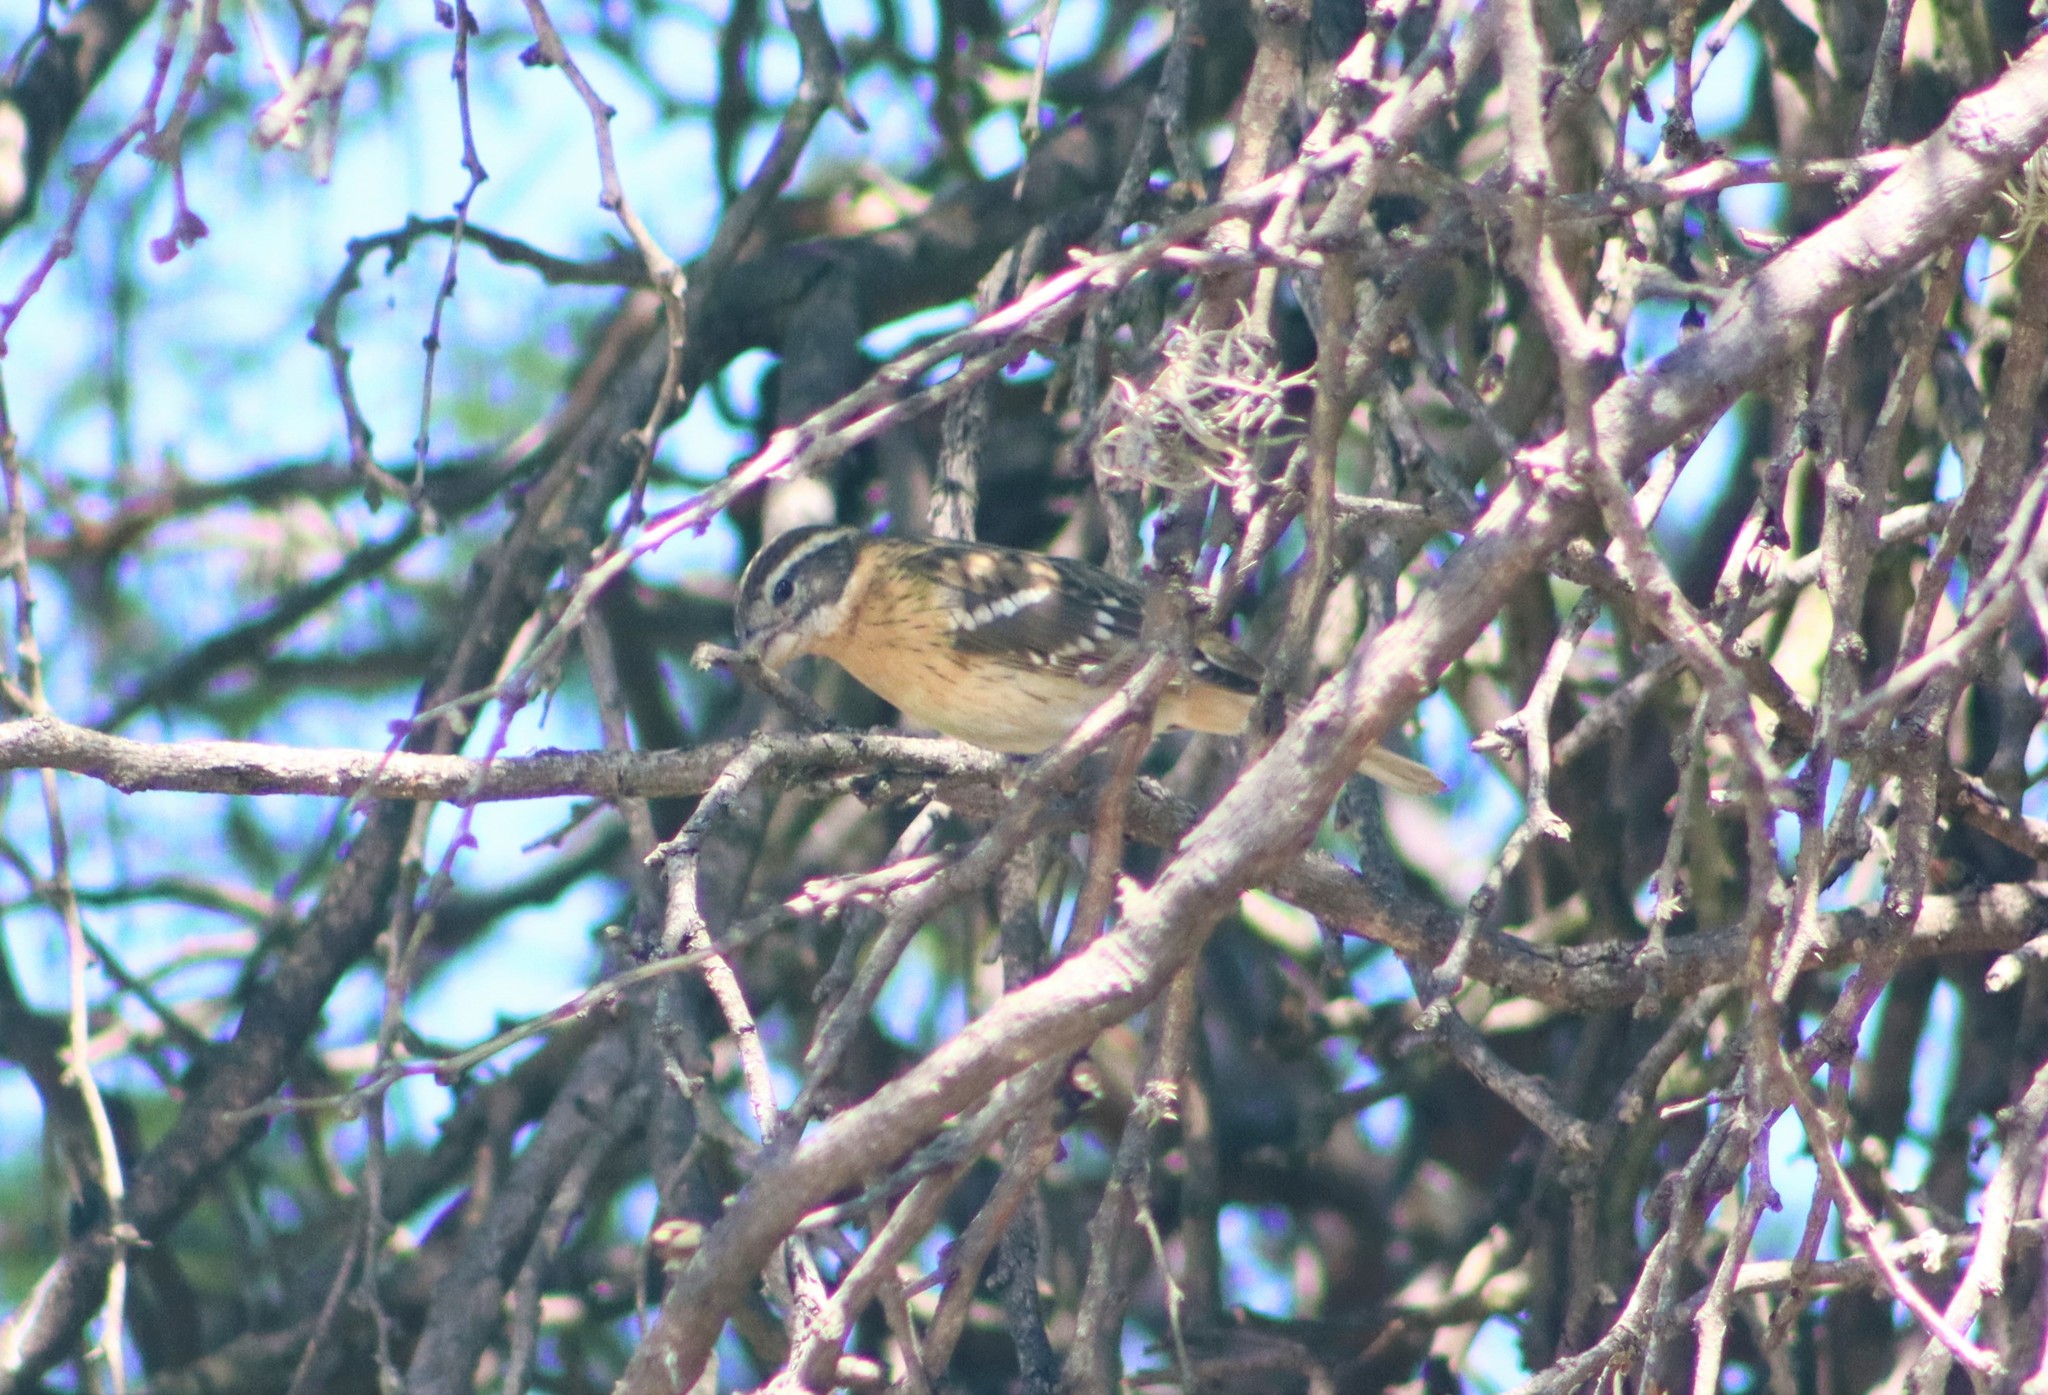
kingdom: Animalia
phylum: Chordata
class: Aves
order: Passeriformes
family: Cardinalidae
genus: Pheucticus
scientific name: Pheucticus melanocephalus
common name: Black-headed grosbeak
